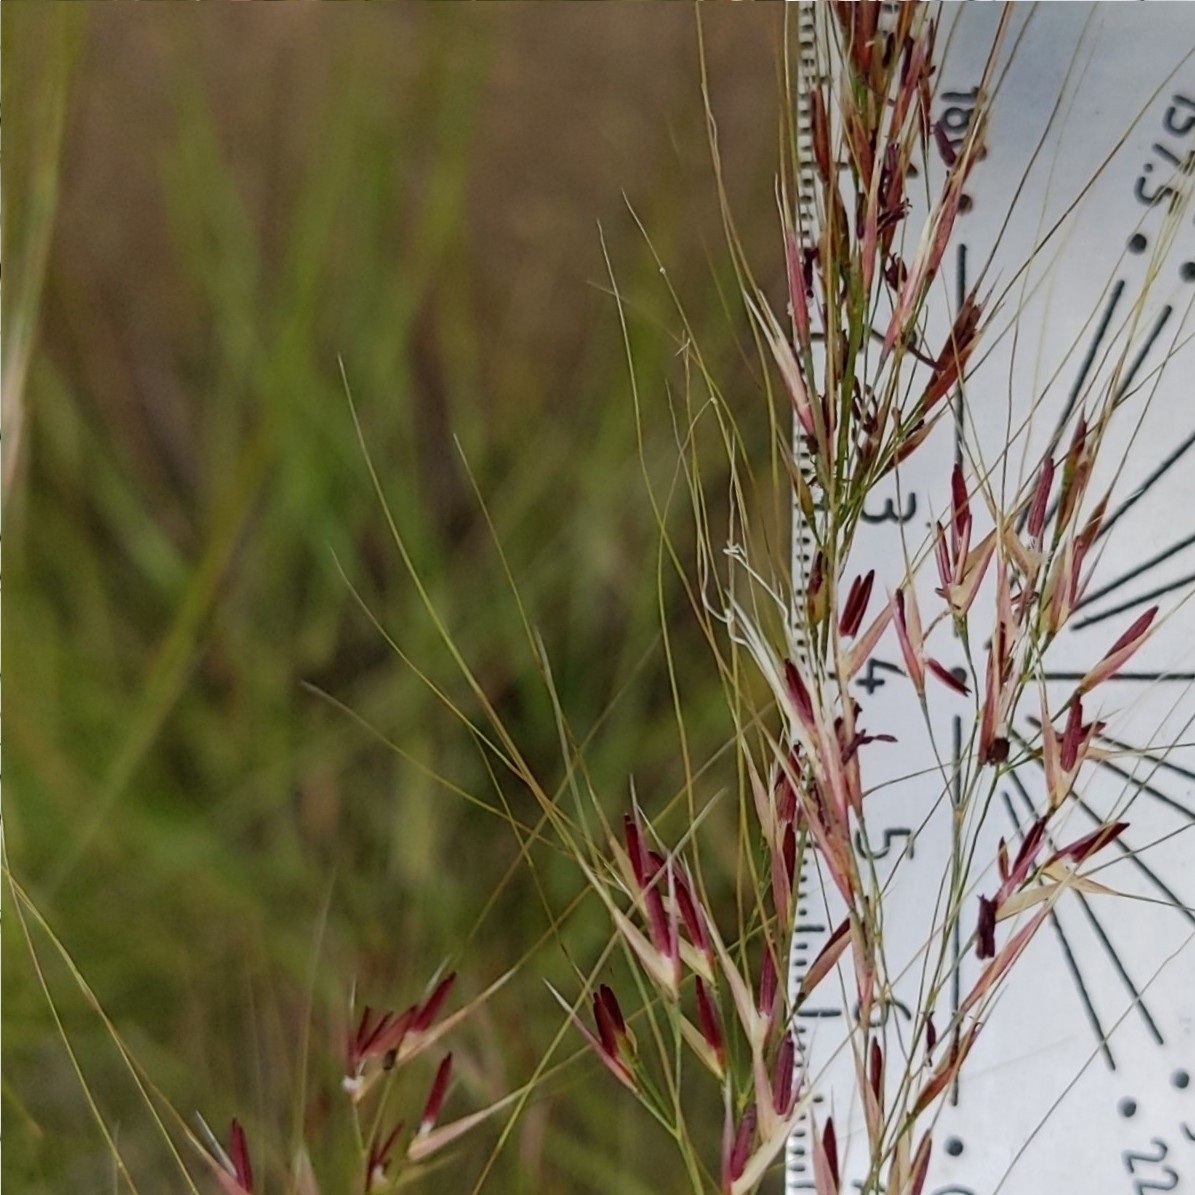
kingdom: Plantae
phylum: Tracheophyta
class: Liliopsida
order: Poales
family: Poaceae
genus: Muhlenbergia
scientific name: Muhlenbergia microsperma
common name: Littleseed muhly
